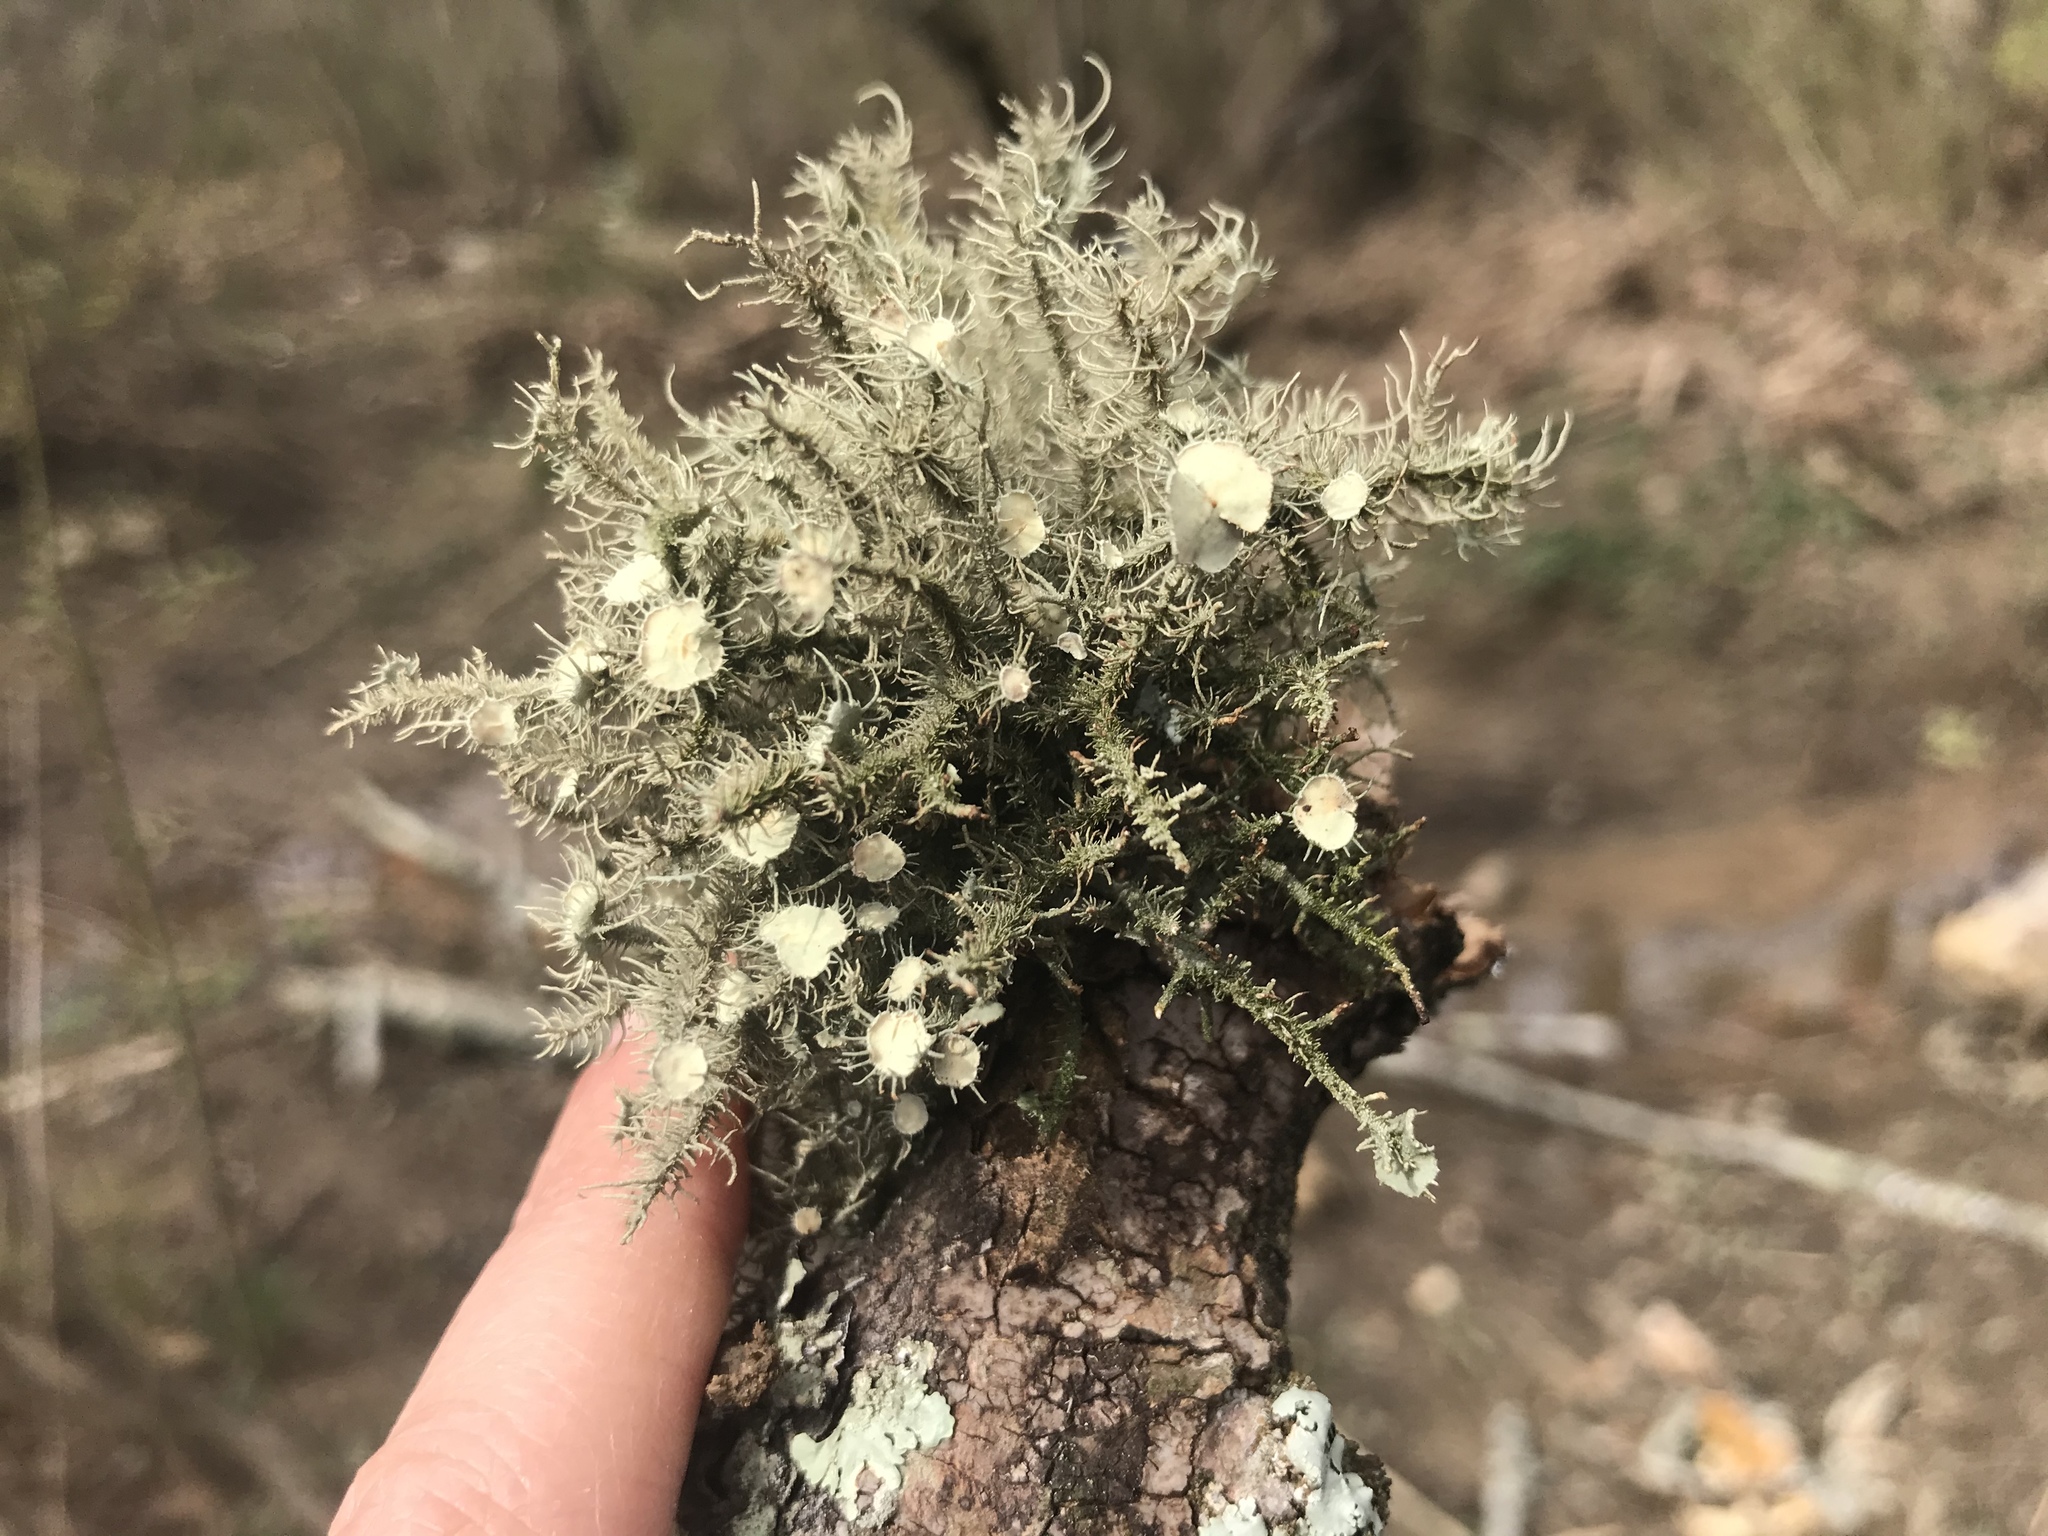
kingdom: Fungi
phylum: Ascomycota
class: Lecanoromycetes
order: Lecanorales
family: Parmeliaceae
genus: Usnea
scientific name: Usnea strigosa
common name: Bushy beard lichen
